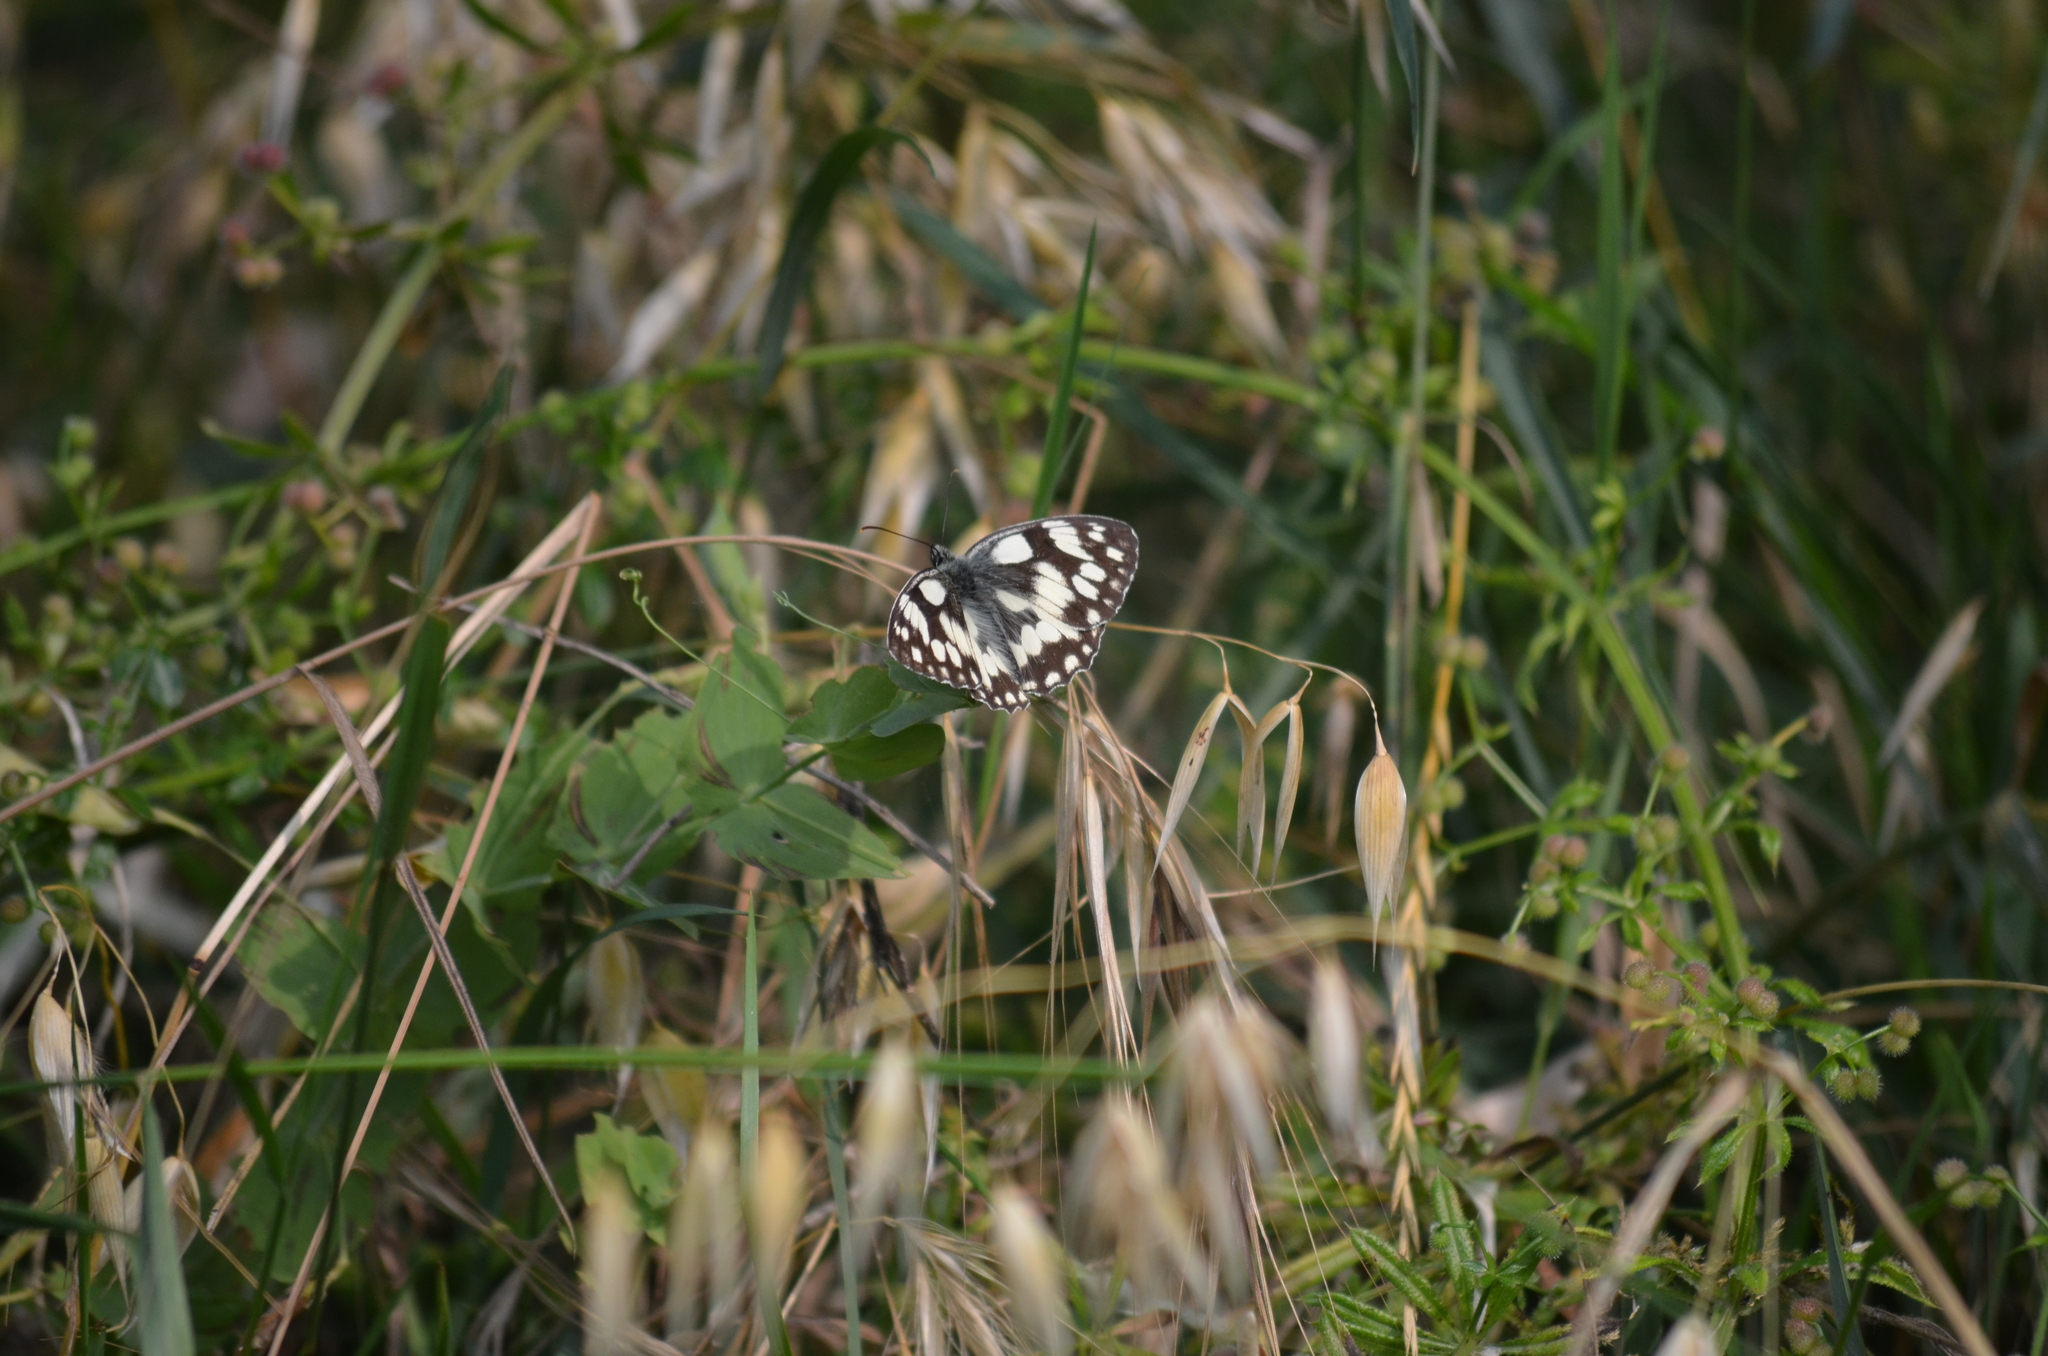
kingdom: Animalia
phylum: Arthropoda
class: Insecta
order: Lepidoptera
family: Nymphalidae
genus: Melanargia
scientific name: Melanargia galathea
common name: Marbled white
